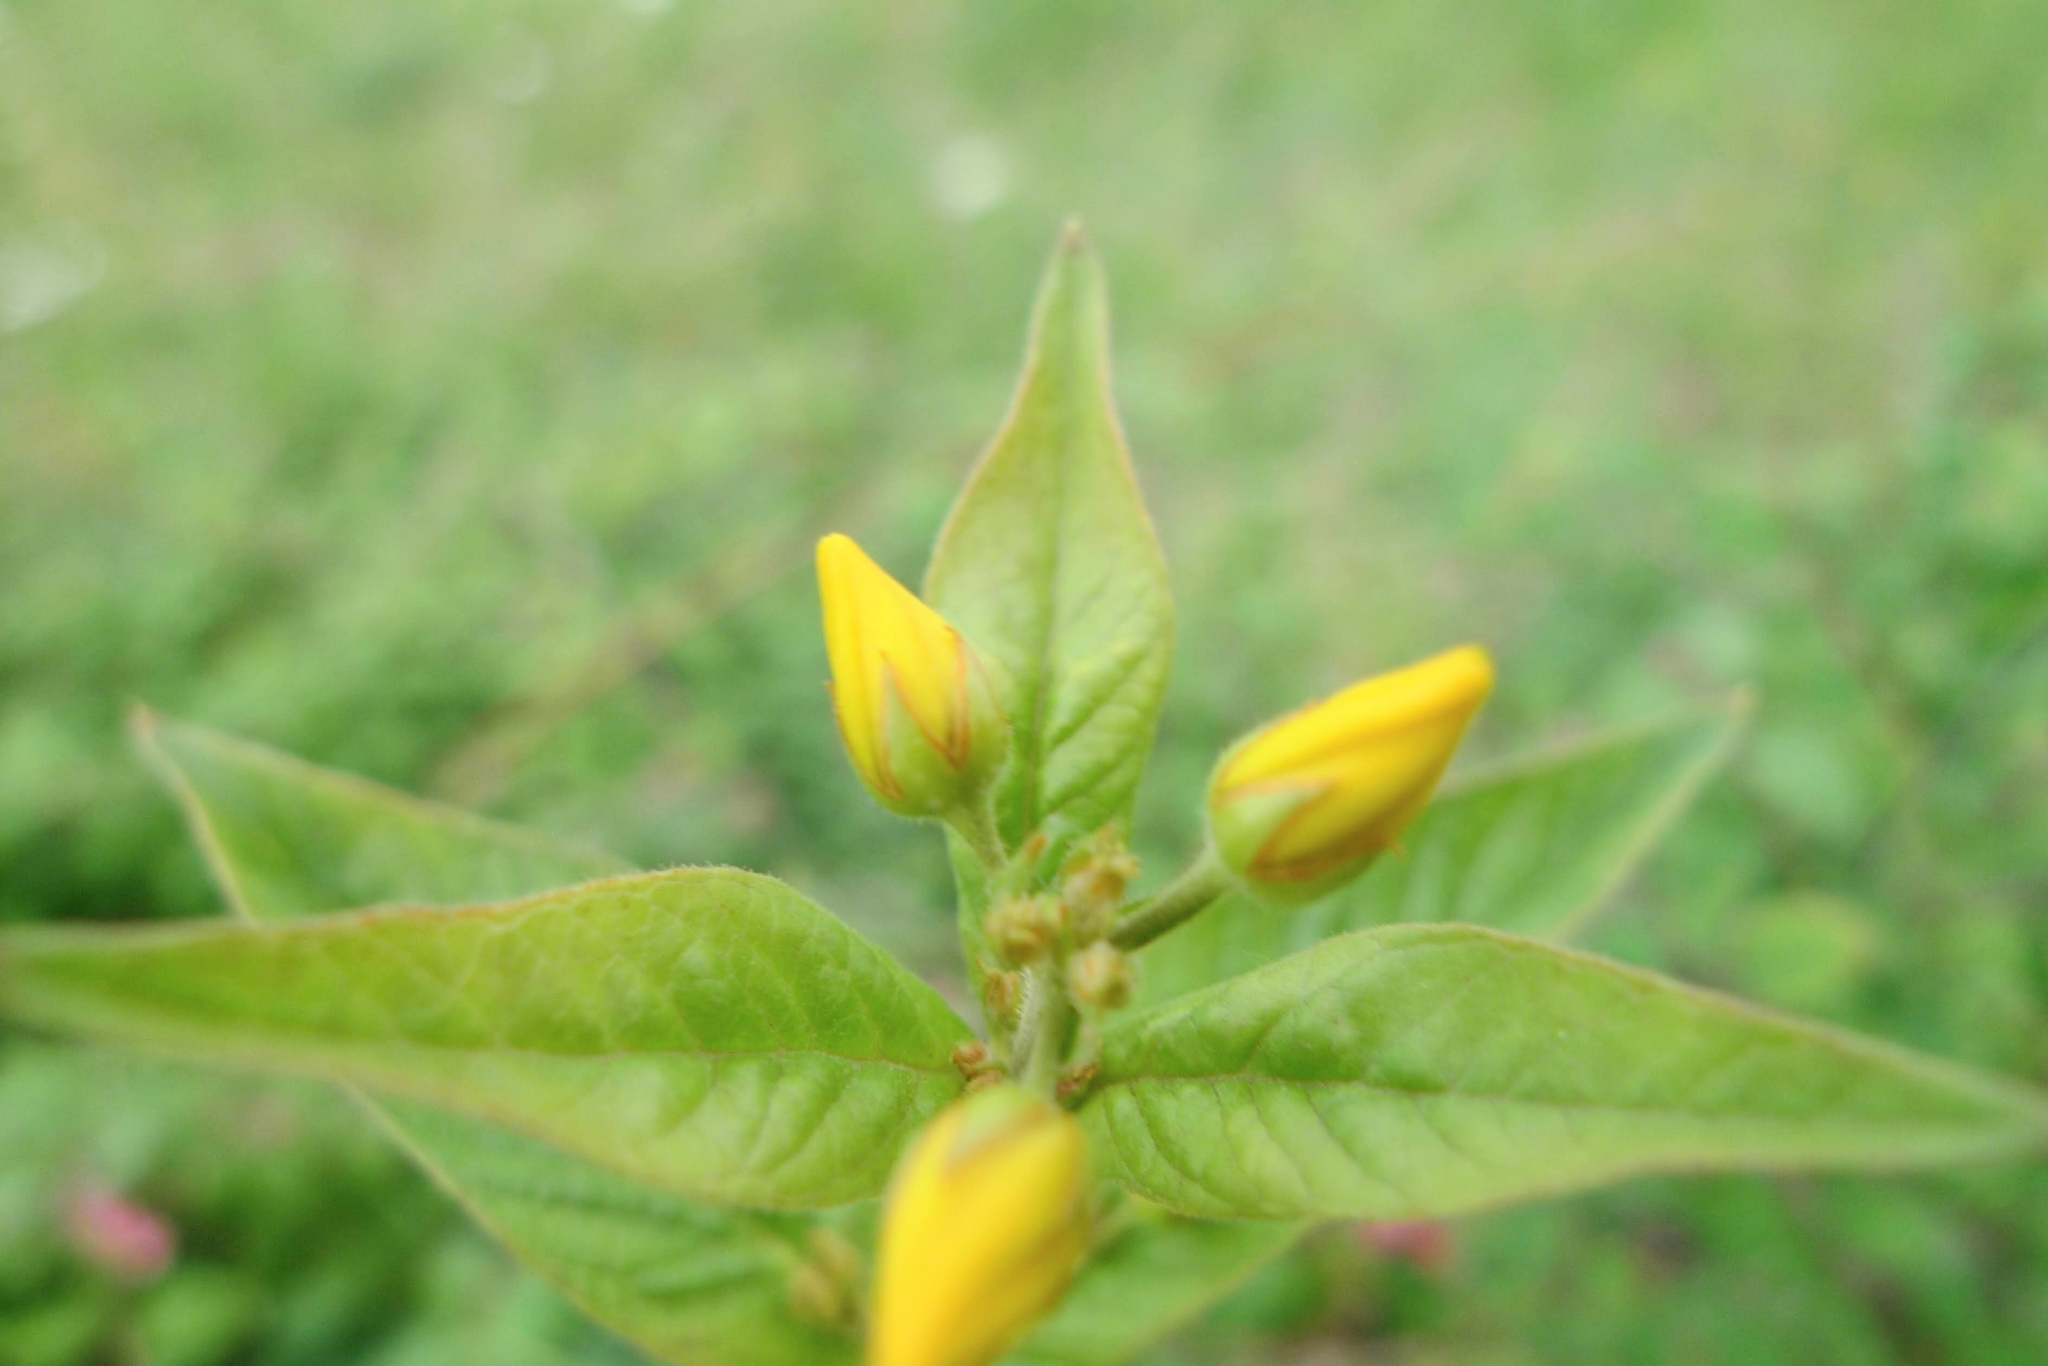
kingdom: Plantae
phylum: Tracheophyta
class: Magnoliopsida
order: Ericales
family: Primulaceae
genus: Lysimachia
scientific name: Lysimachia vulgaris
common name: Yellow loosestrife
